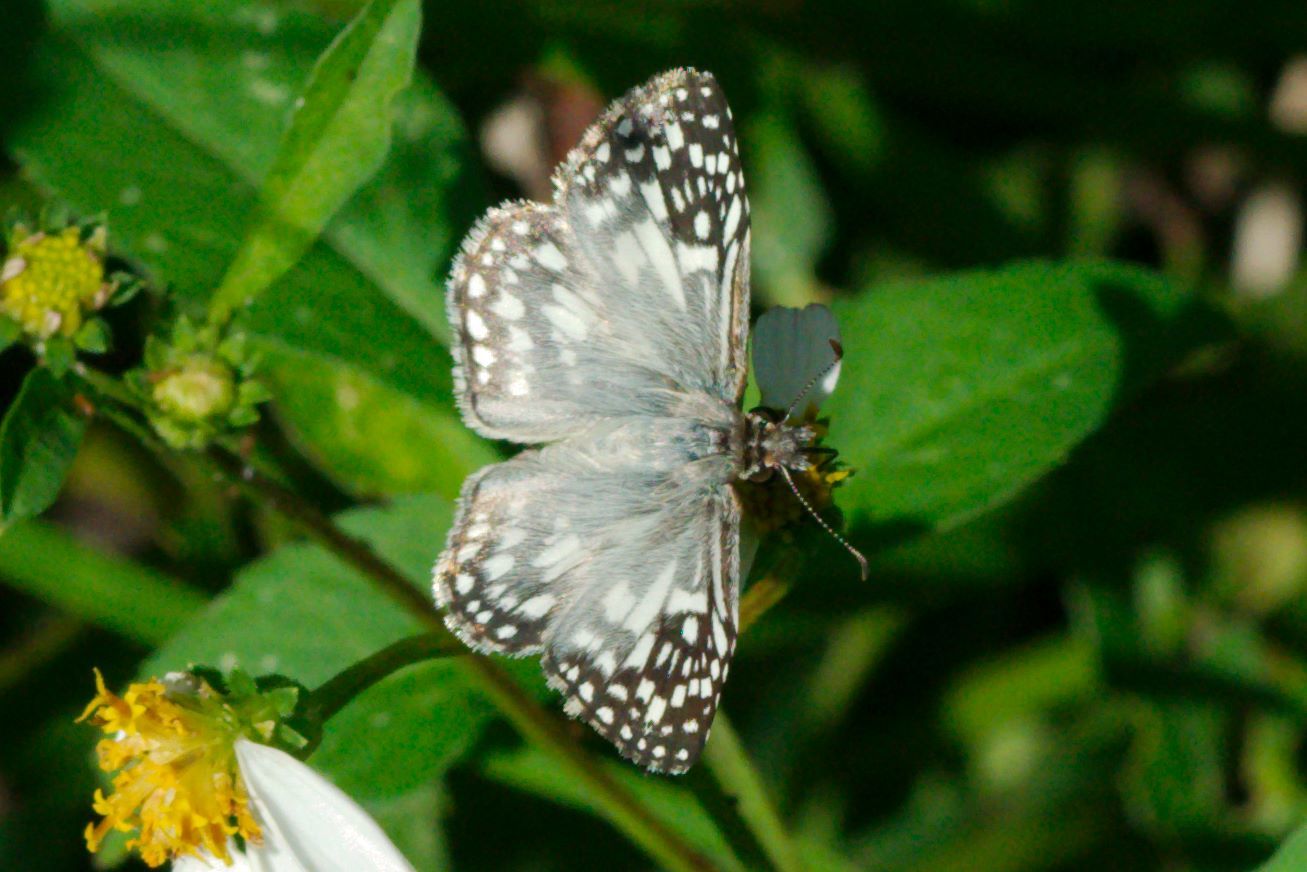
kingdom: Animalia
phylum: Arthropoda
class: Insecta
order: Lepidoptera
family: Hesperiidae
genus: Pyrgus
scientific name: Pyrgus oileus
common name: Tropical checkered-skipper
